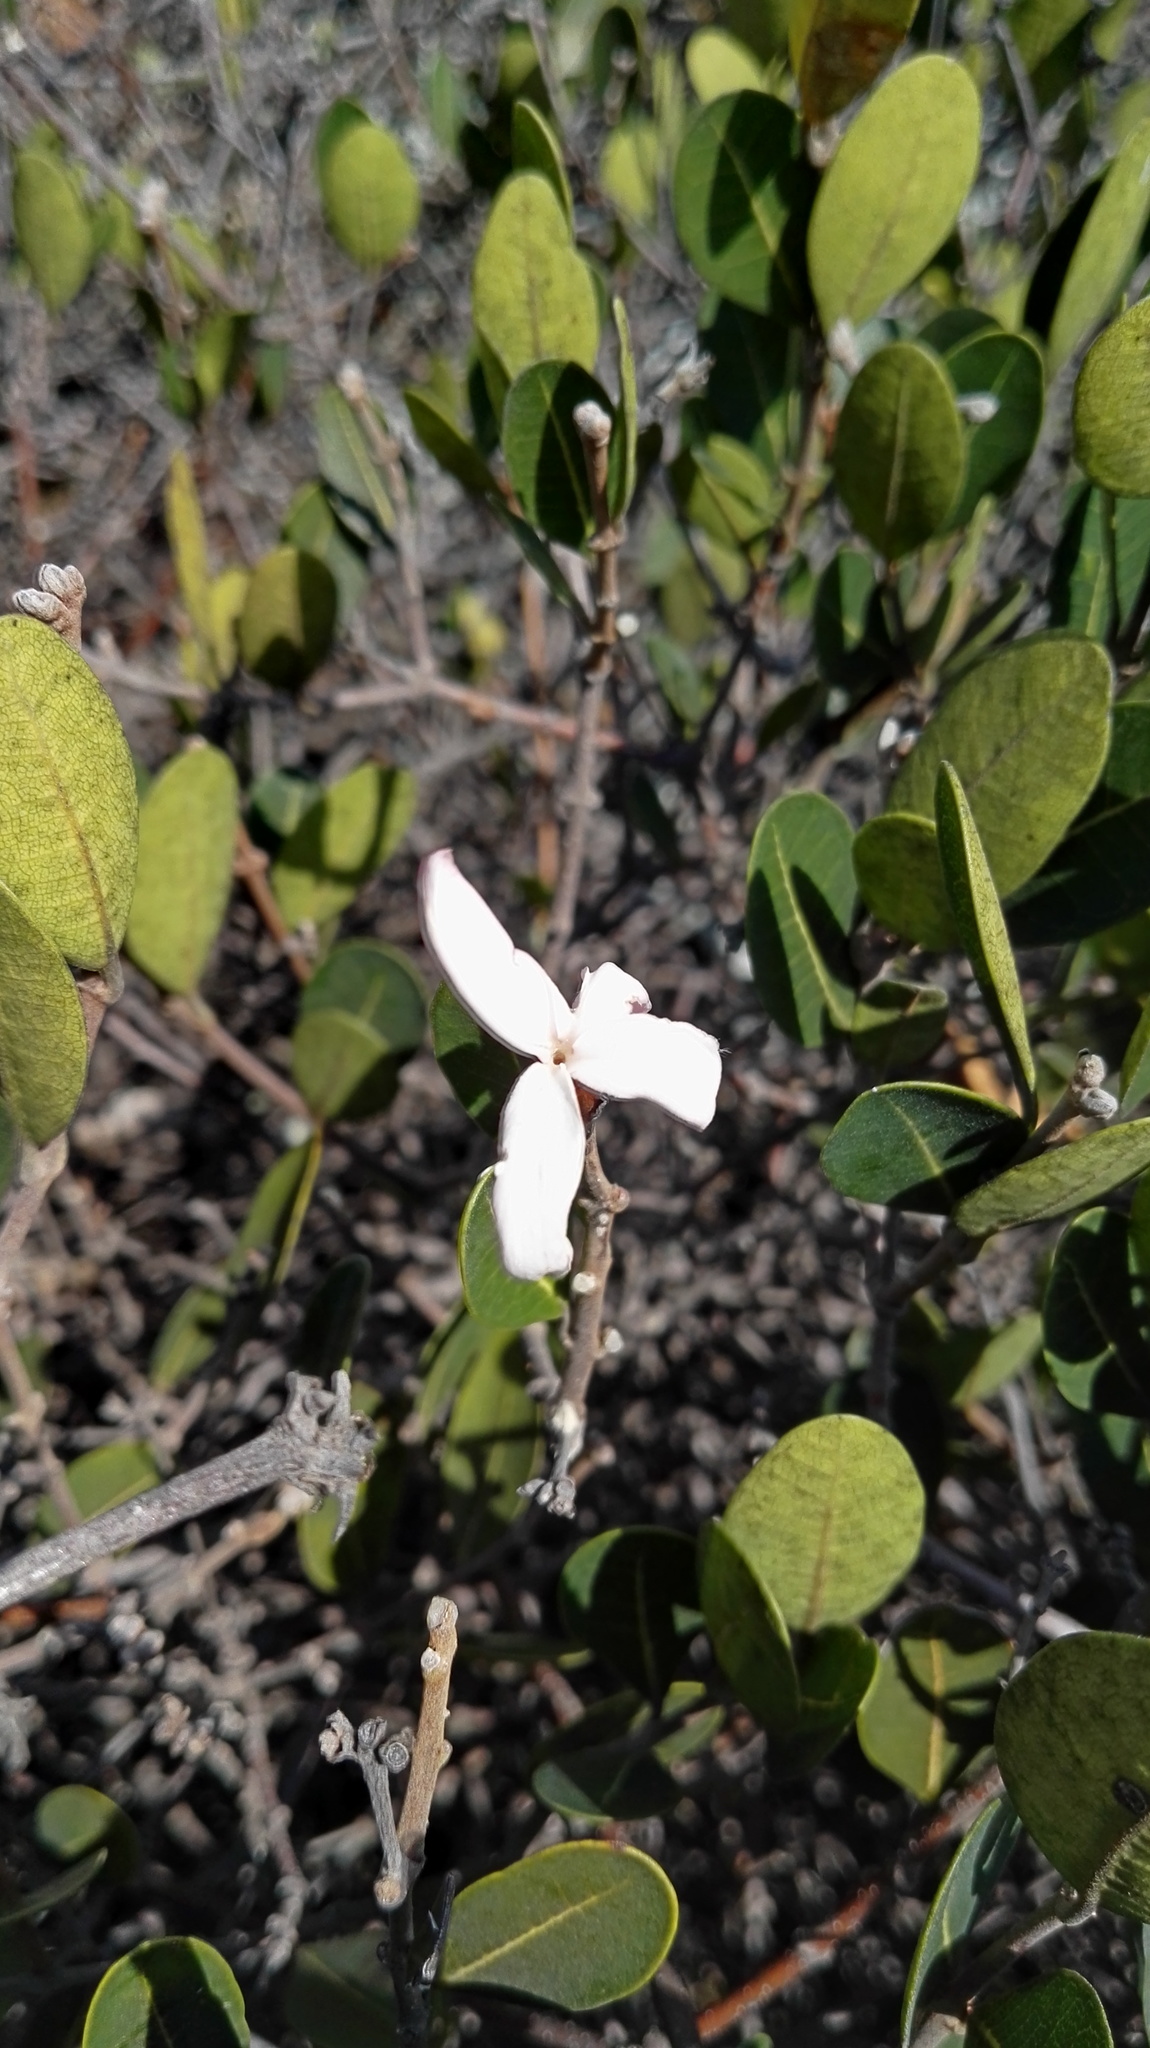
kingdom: Plantae
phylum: Tracheophyta
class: Magnoliopsida
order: Gentianales
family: Apocynaceae
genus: Ancylobothrys
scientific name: Ancylobothrys capensis
